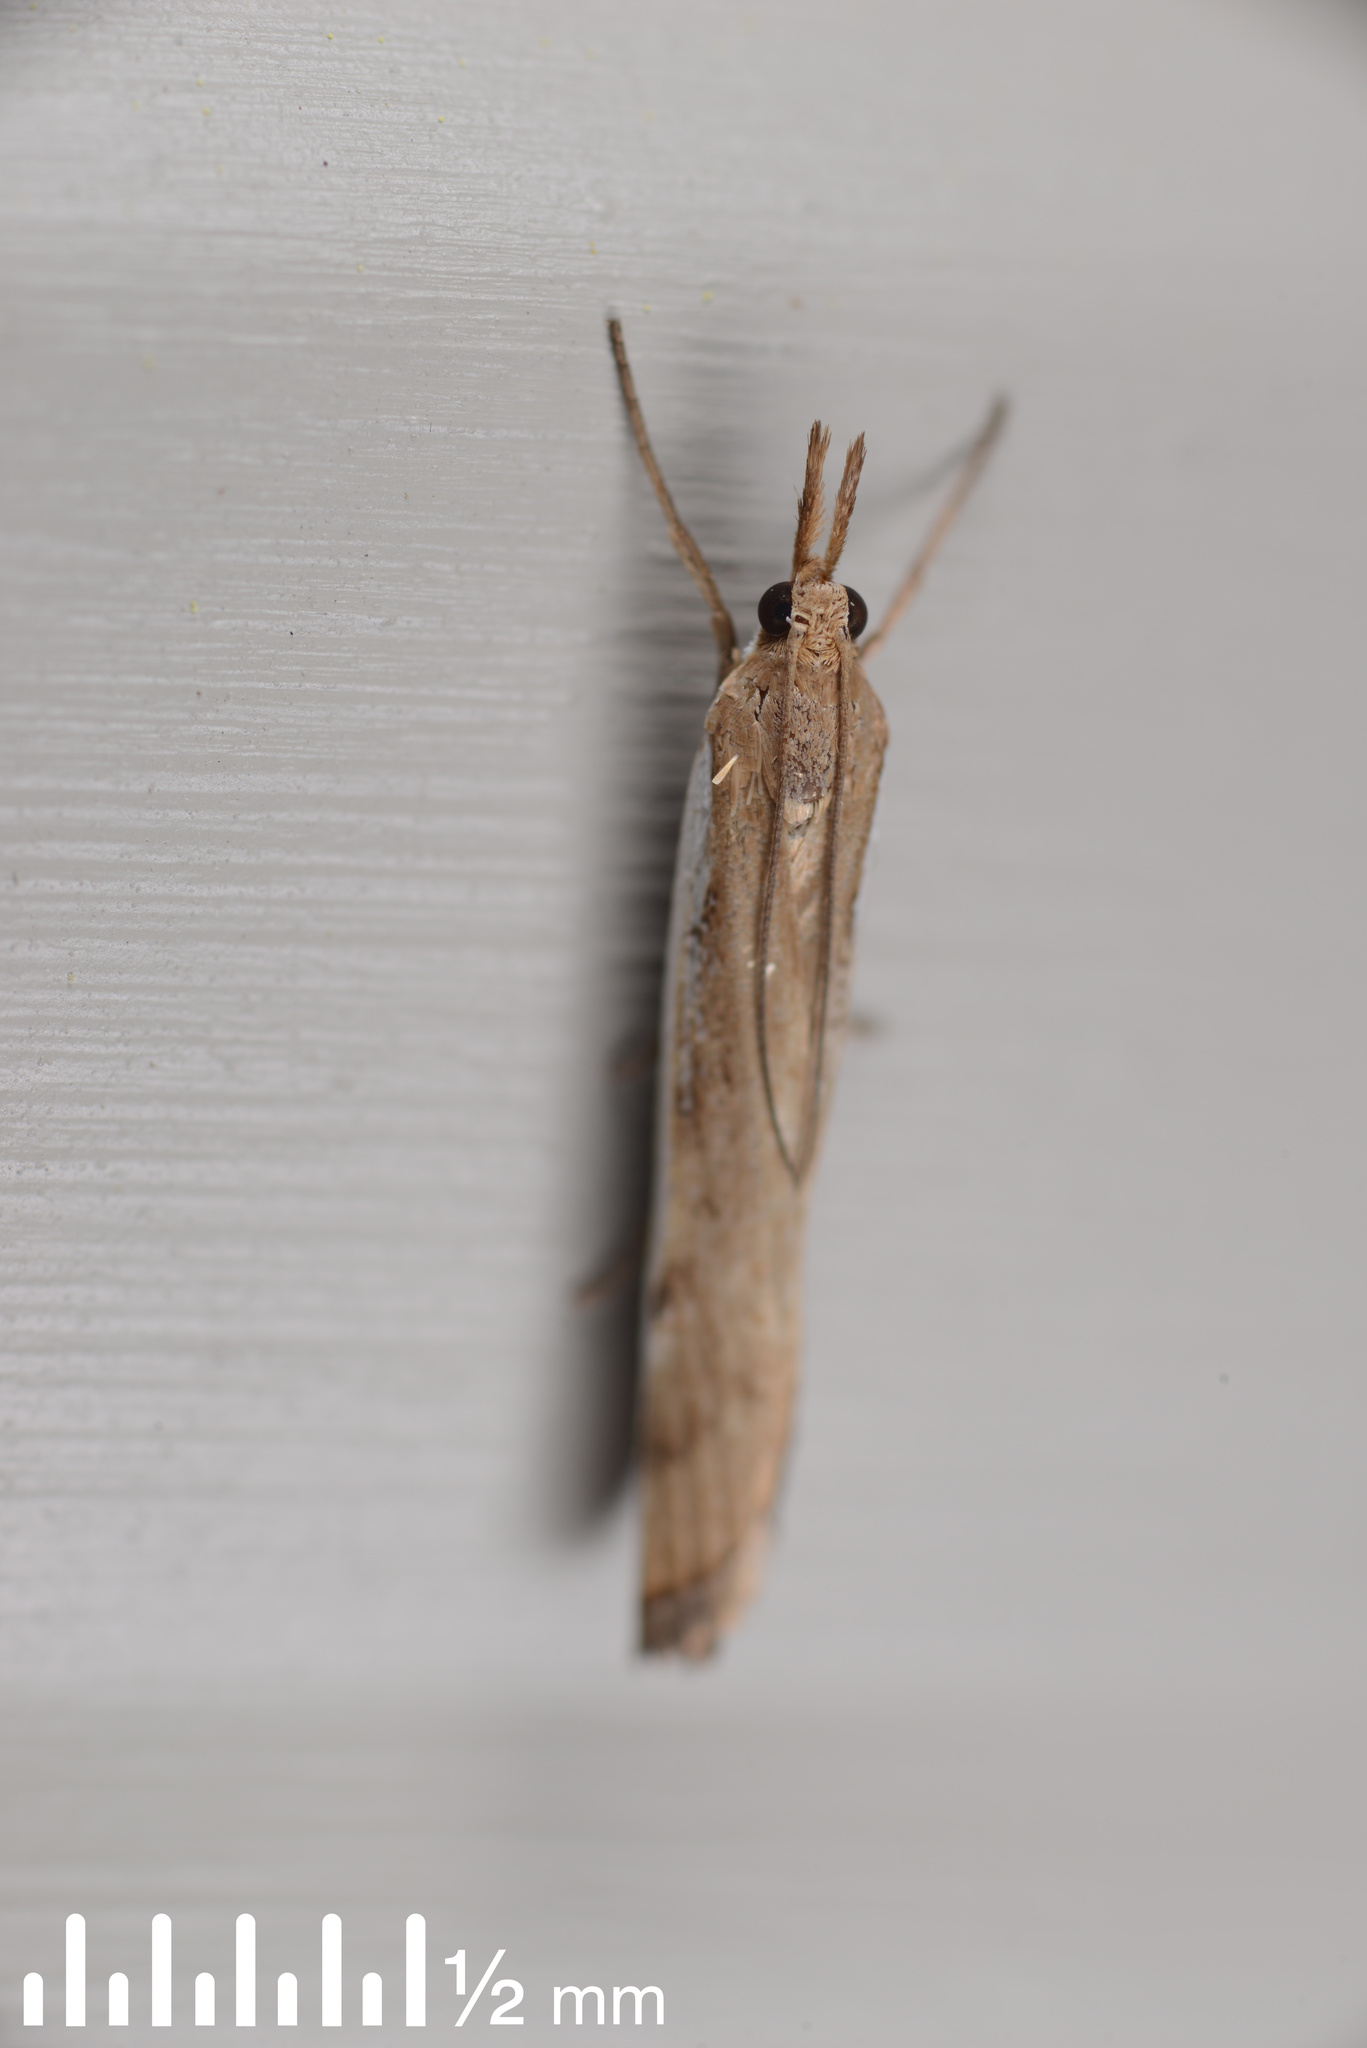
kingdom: Animalia
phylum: Arthropoda
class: Insecta
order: Lepidoptera
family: Crambidae
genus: Orocrambus
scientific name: Orocrambus flexuosellus
